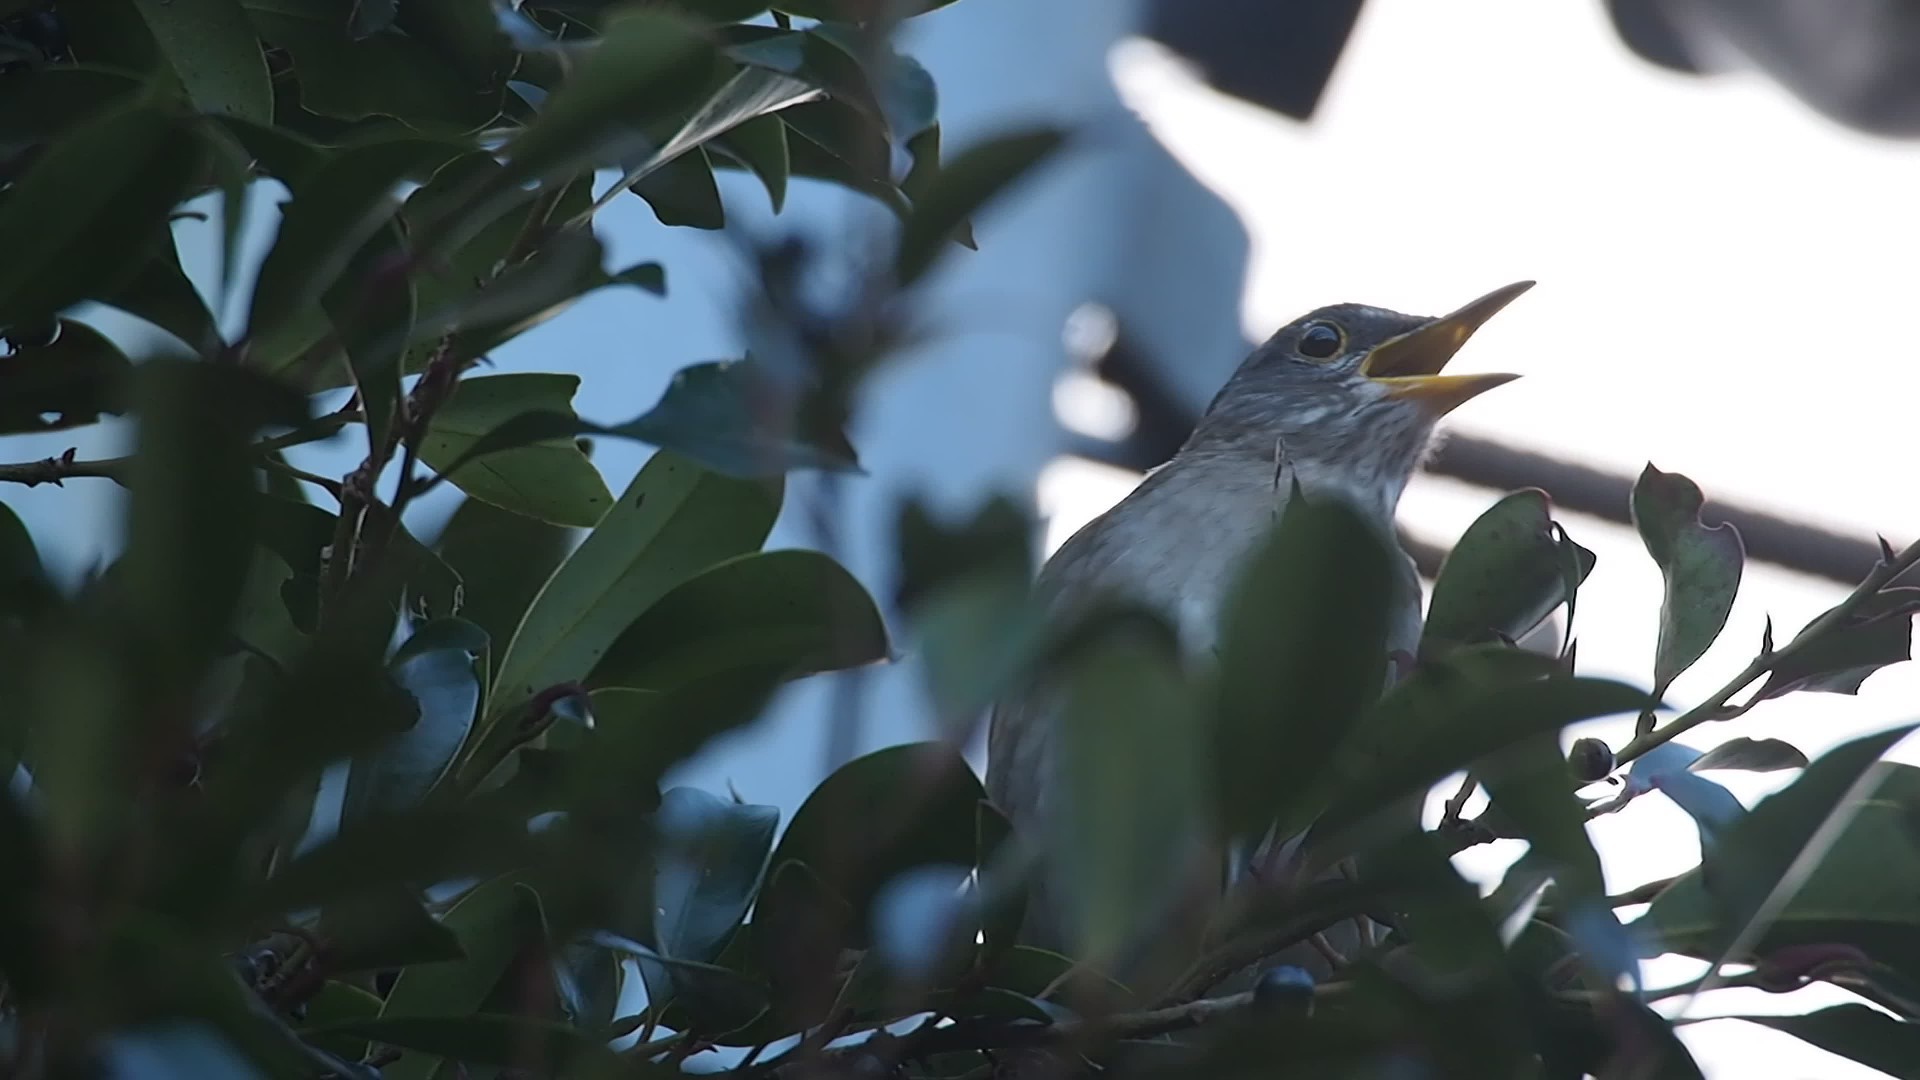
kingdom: Animalia
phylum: Chordata
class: Aves
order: Passeriformes
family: Turdidae
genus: Turdus
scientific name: Turdus pallidus
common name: Pale thrush
